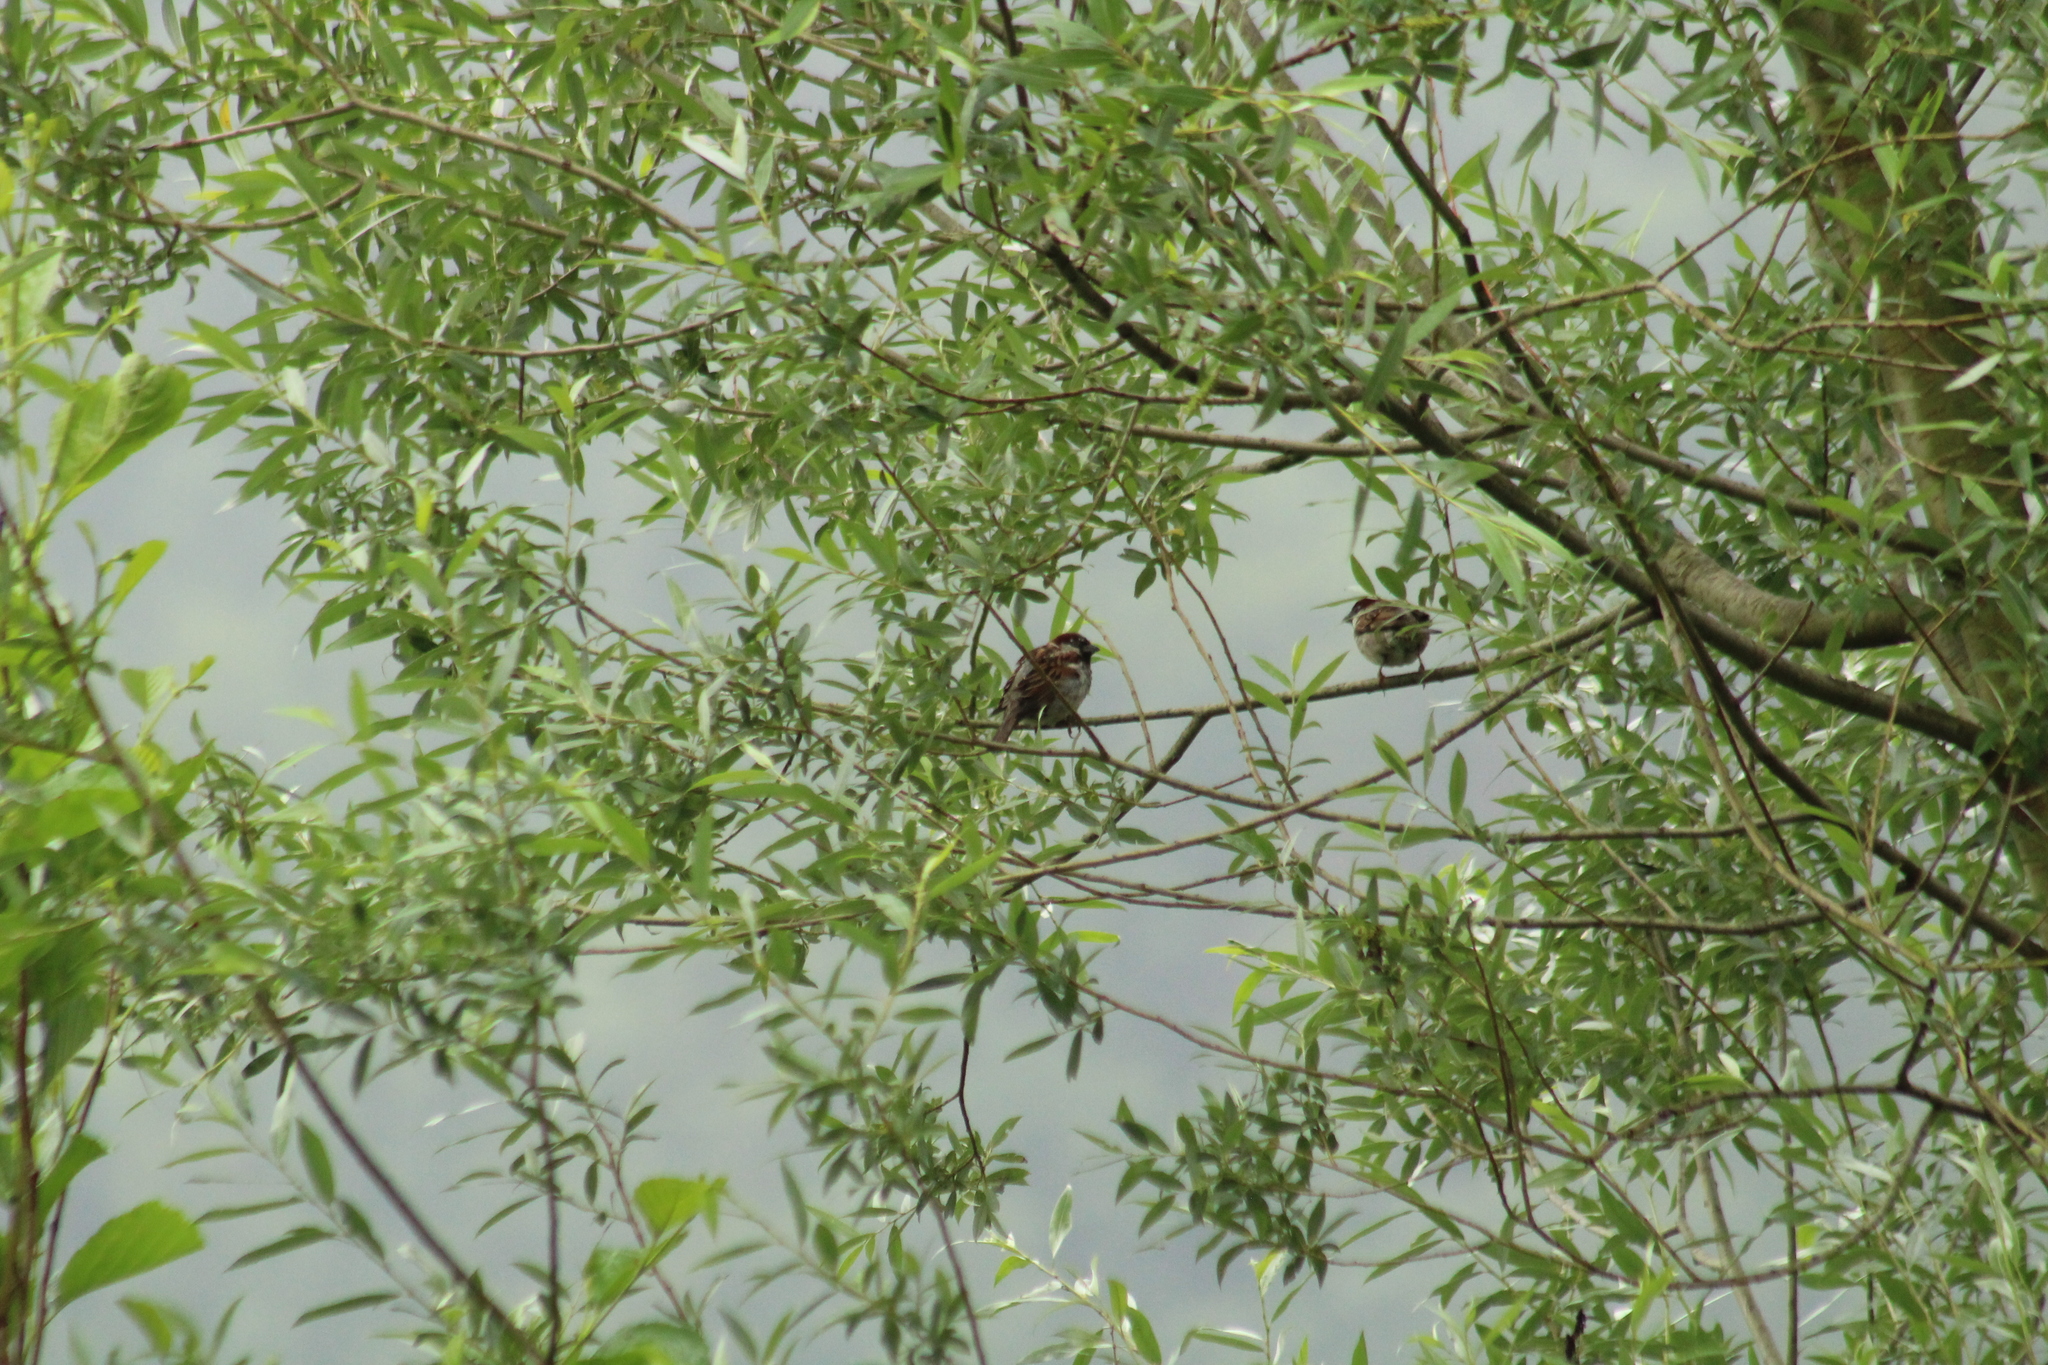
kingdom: Animalia
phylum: Chordata
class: Aves
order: Passeriformes
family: Passeridae
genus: Passer
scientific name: Passer domesticus
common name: House sparrow
